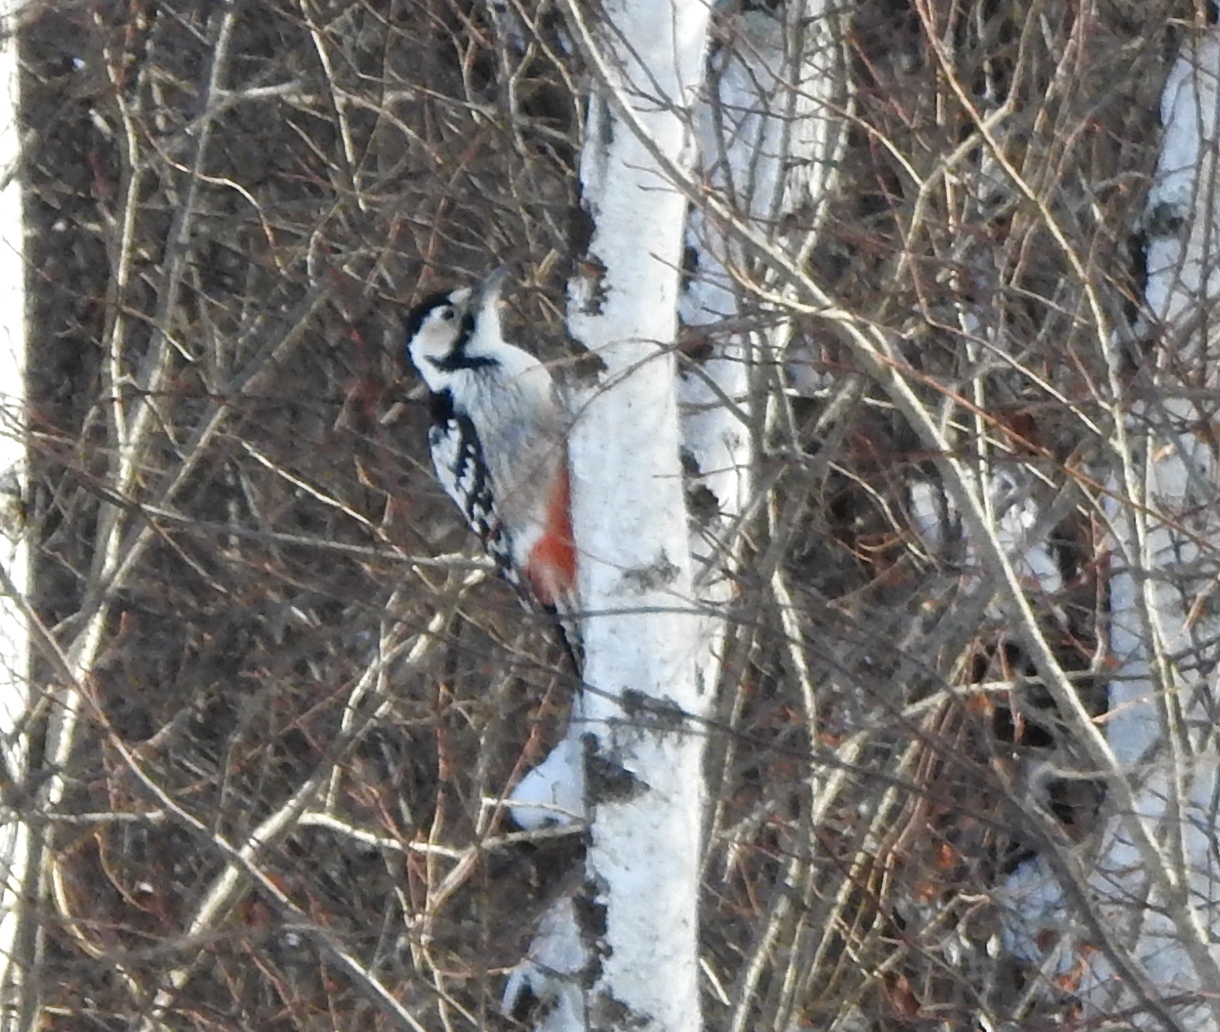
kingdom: Animalia
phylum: Chordata
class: Aves
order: Piciformes
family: Picidae
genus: Dendrocopos
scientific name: Dendrocopos leucotos
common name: White-backed woodpecker
